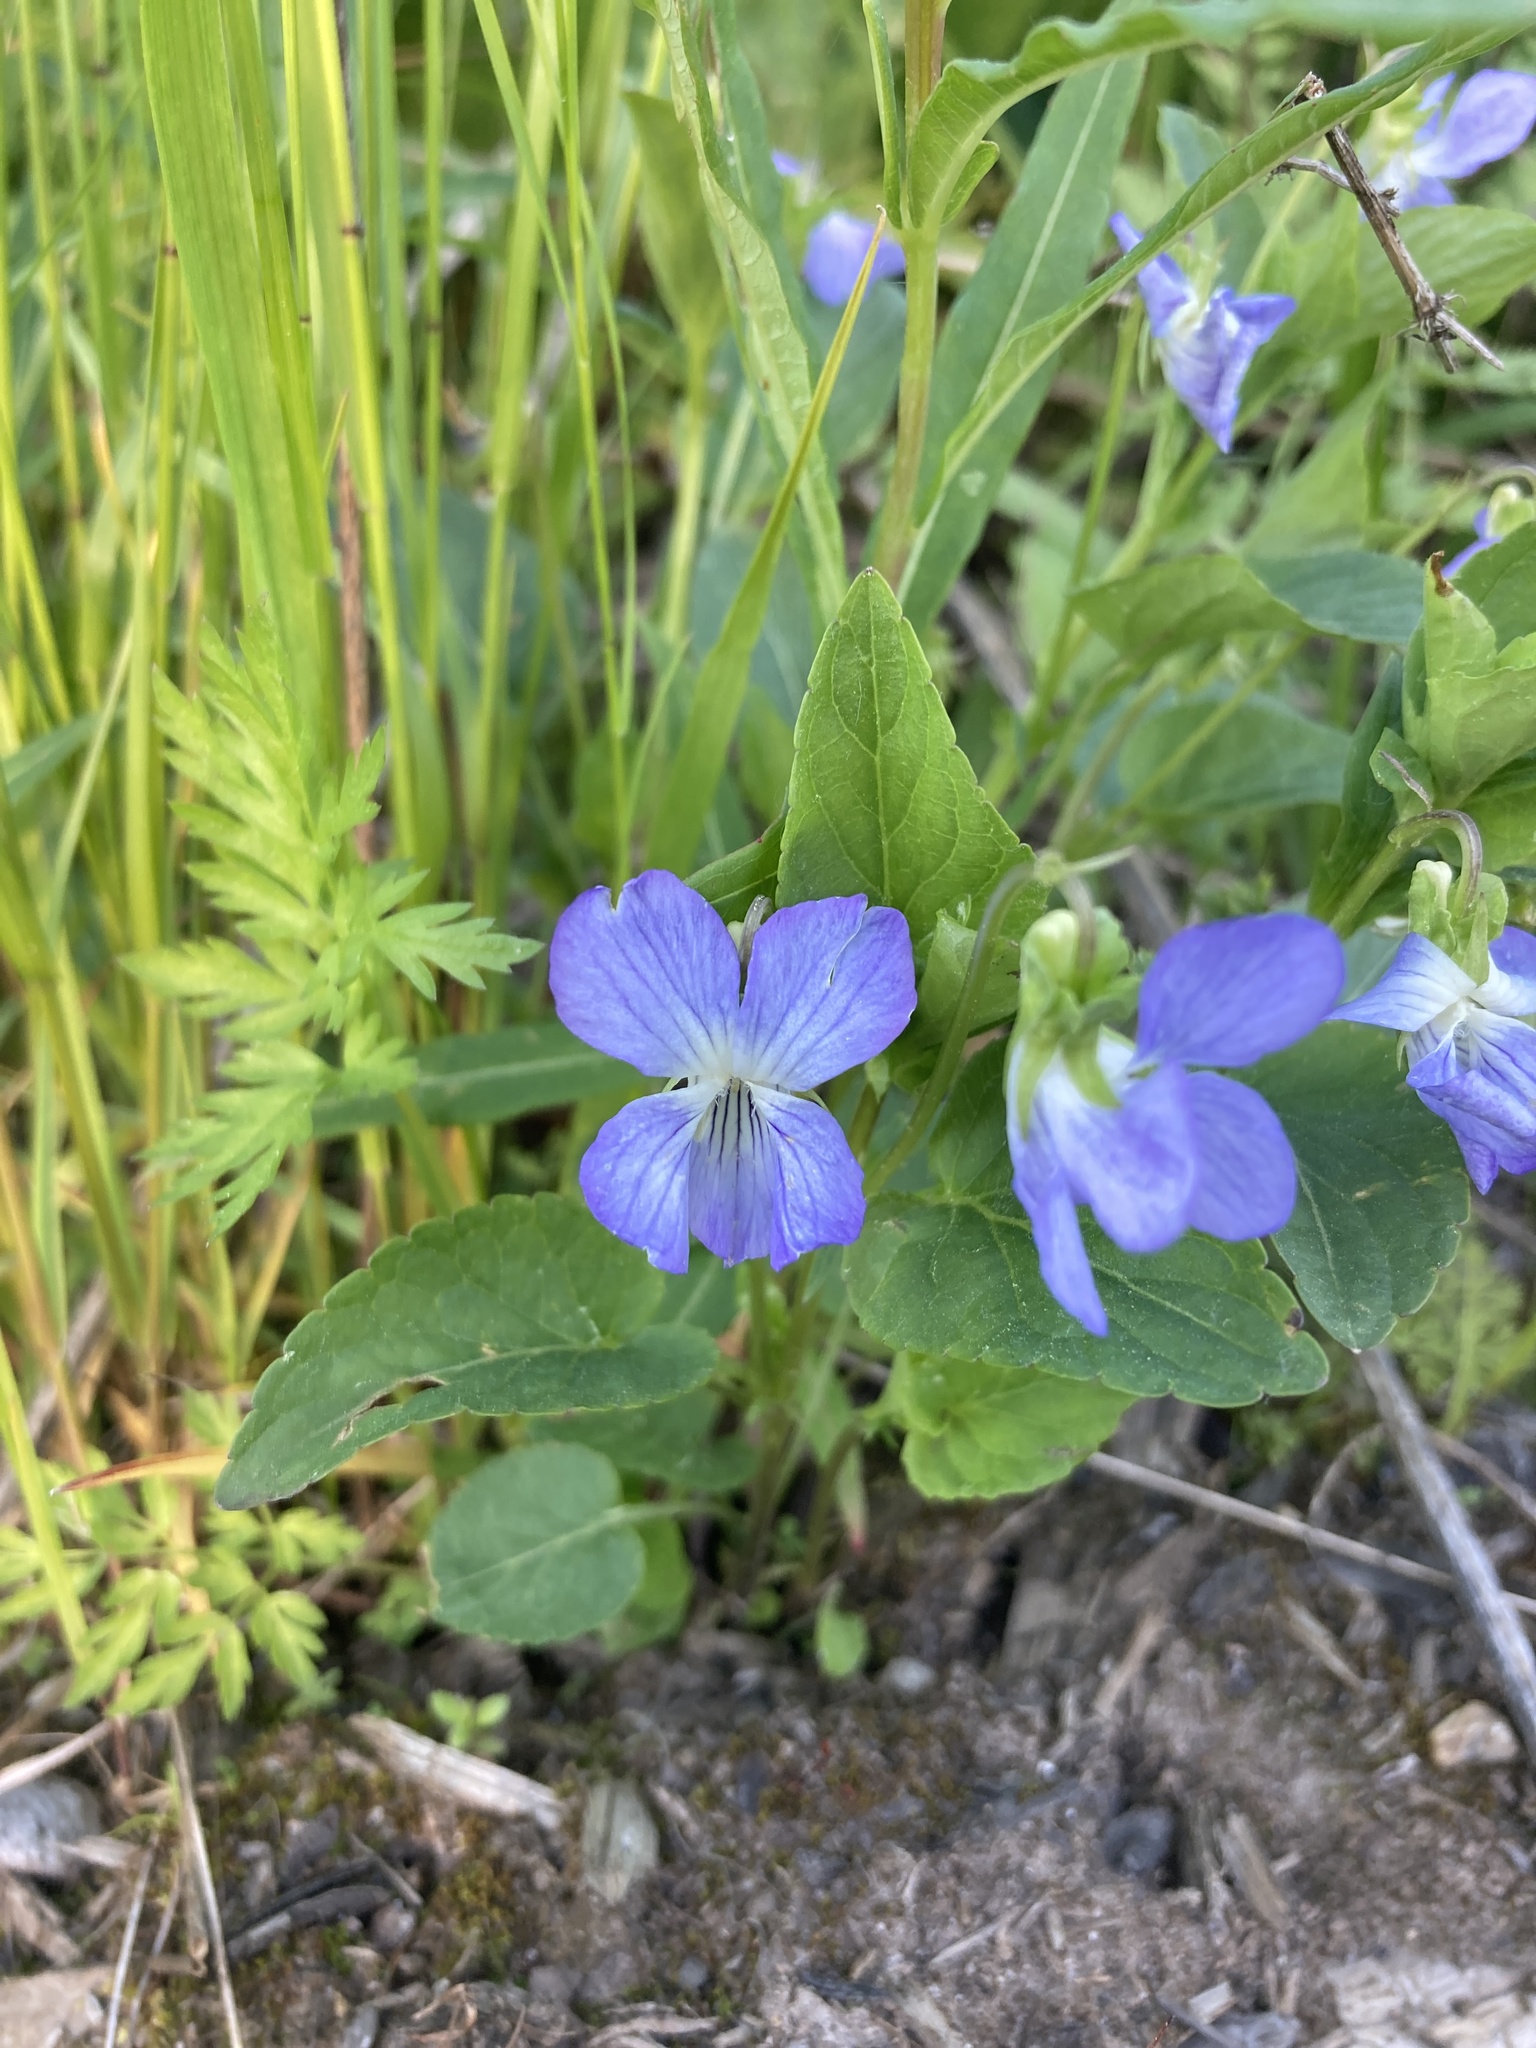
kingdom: Plantae
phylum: Tracheophyta
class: Magnoliopsida
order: Malpighiales
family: Violaceae
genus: Viola
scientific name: Viola canina
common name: Heath dog-violet
